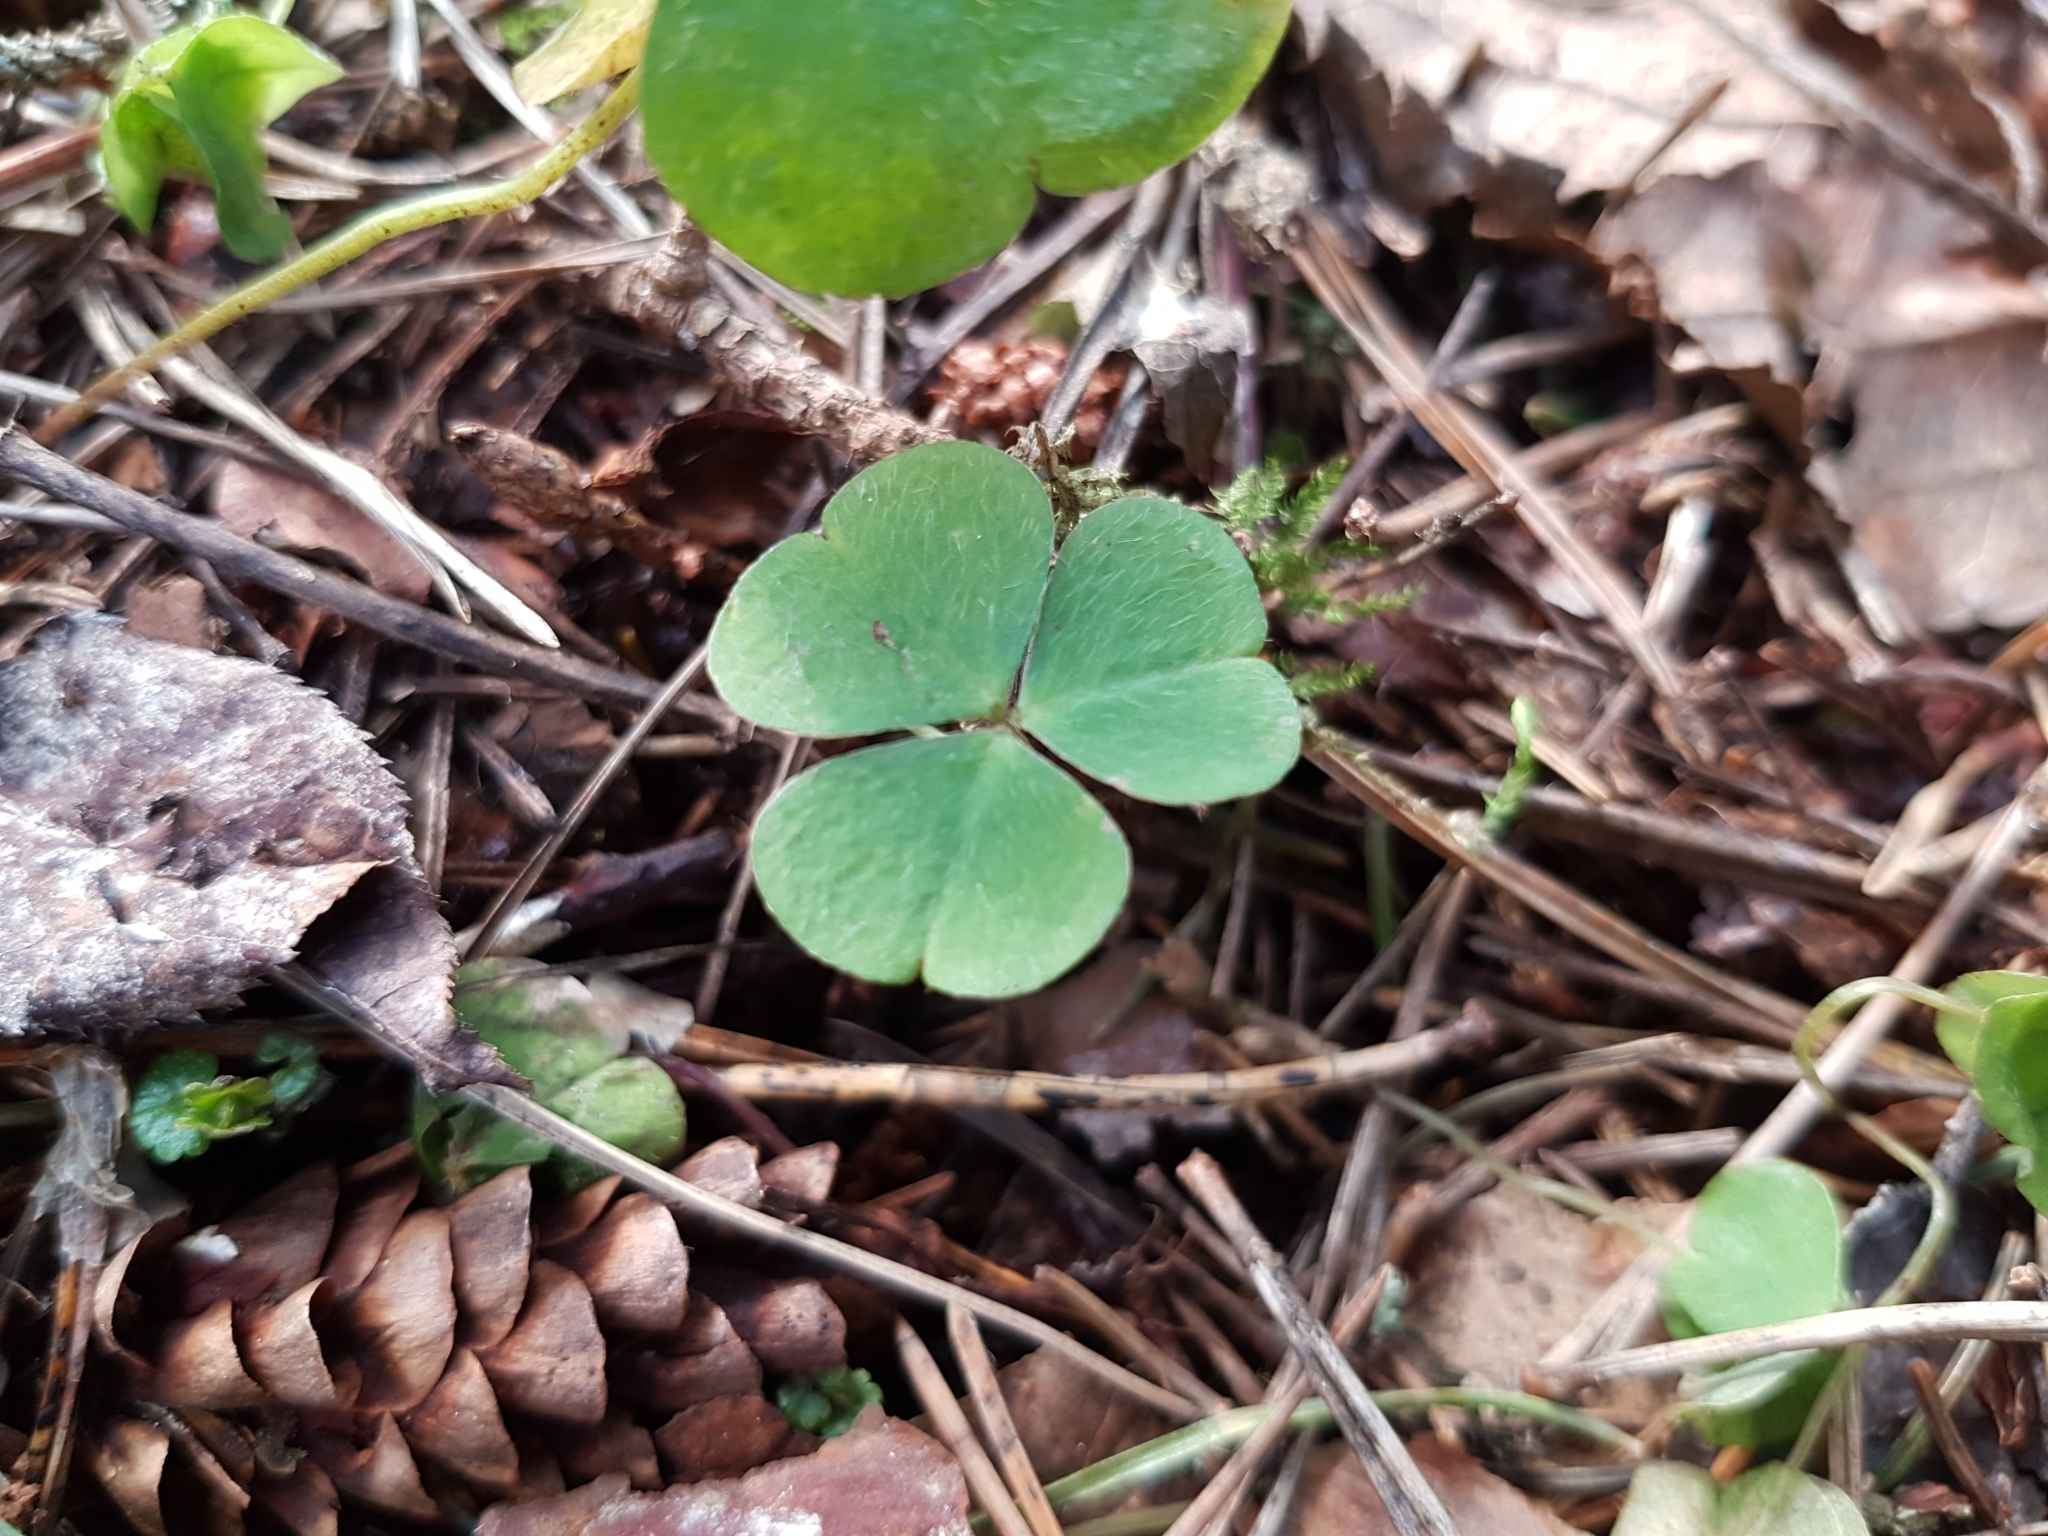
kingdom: Plantae
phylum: Tracheophyta
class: Magnoliopsida
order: Oxalidales
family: Oxalidaceae
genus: Oxalis
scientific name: Oxalis acetosella
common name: Wood-sorrel
